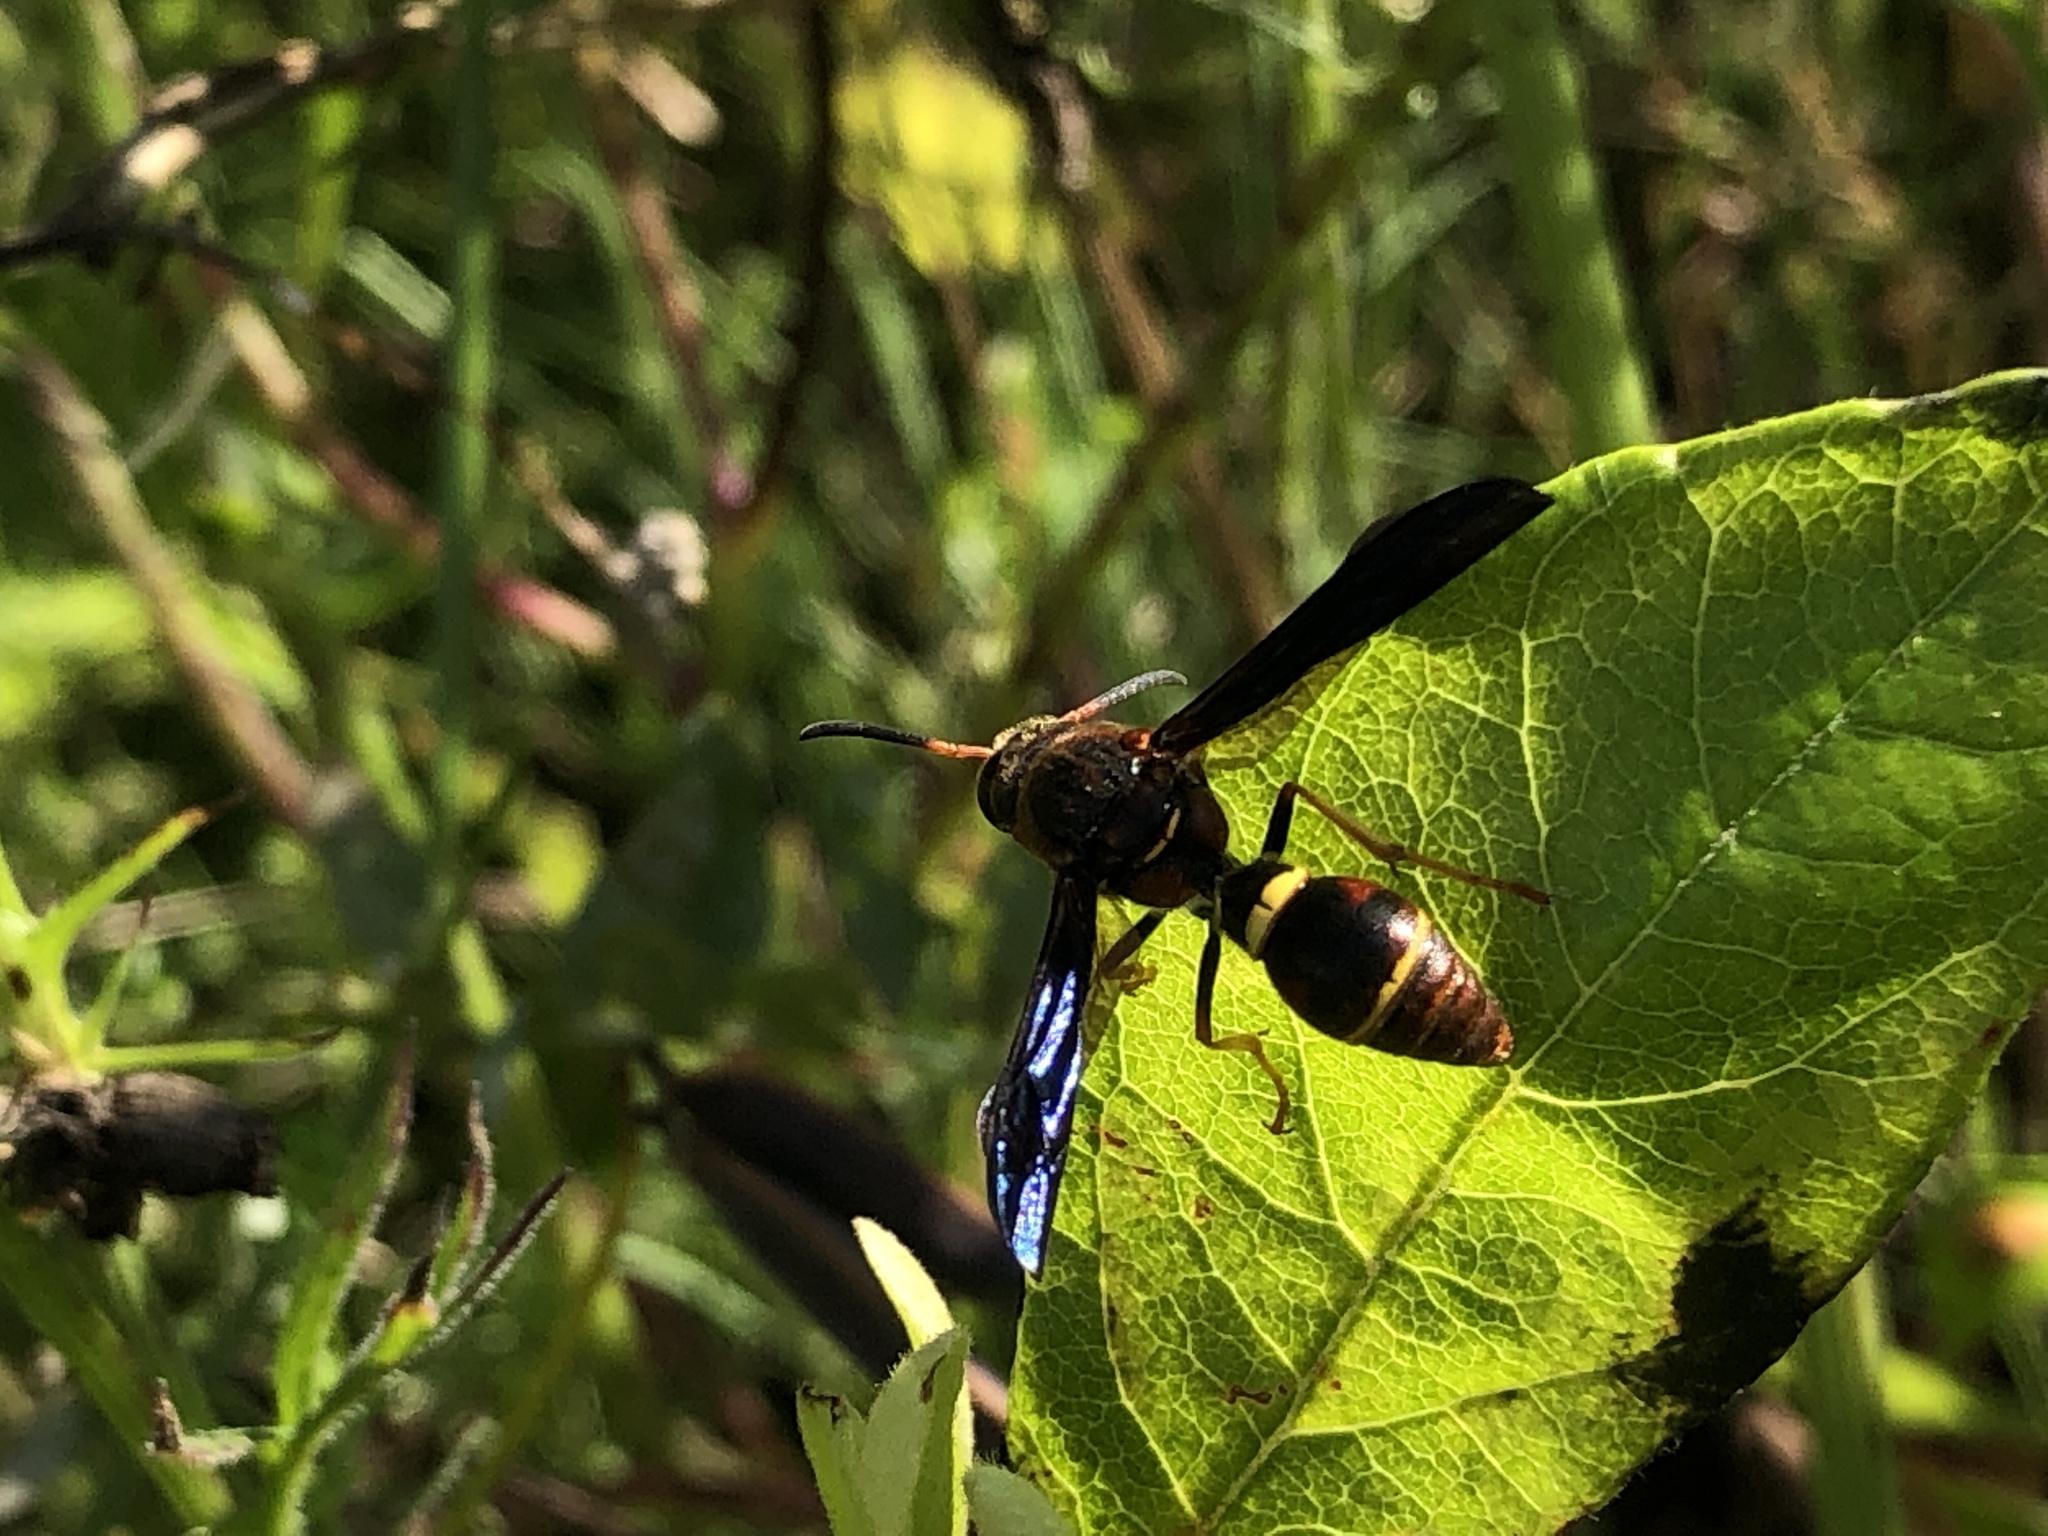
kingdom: Animalia
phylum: Arthropoda
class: Insecta
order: Hymenoptera
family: Eumenidae
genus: Parazumia
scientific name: Parazumia tolteca
